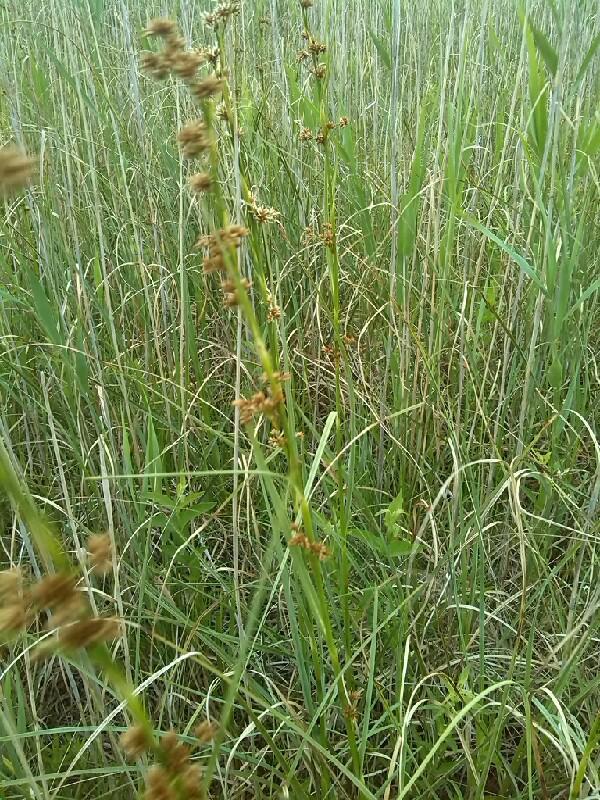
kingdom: Plantae
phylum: Tracheophyta
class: Liliopsida
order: Poales
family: Cyperaceae
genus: Cladium
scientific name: Cladium mariscus
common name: Great fen-sedge
